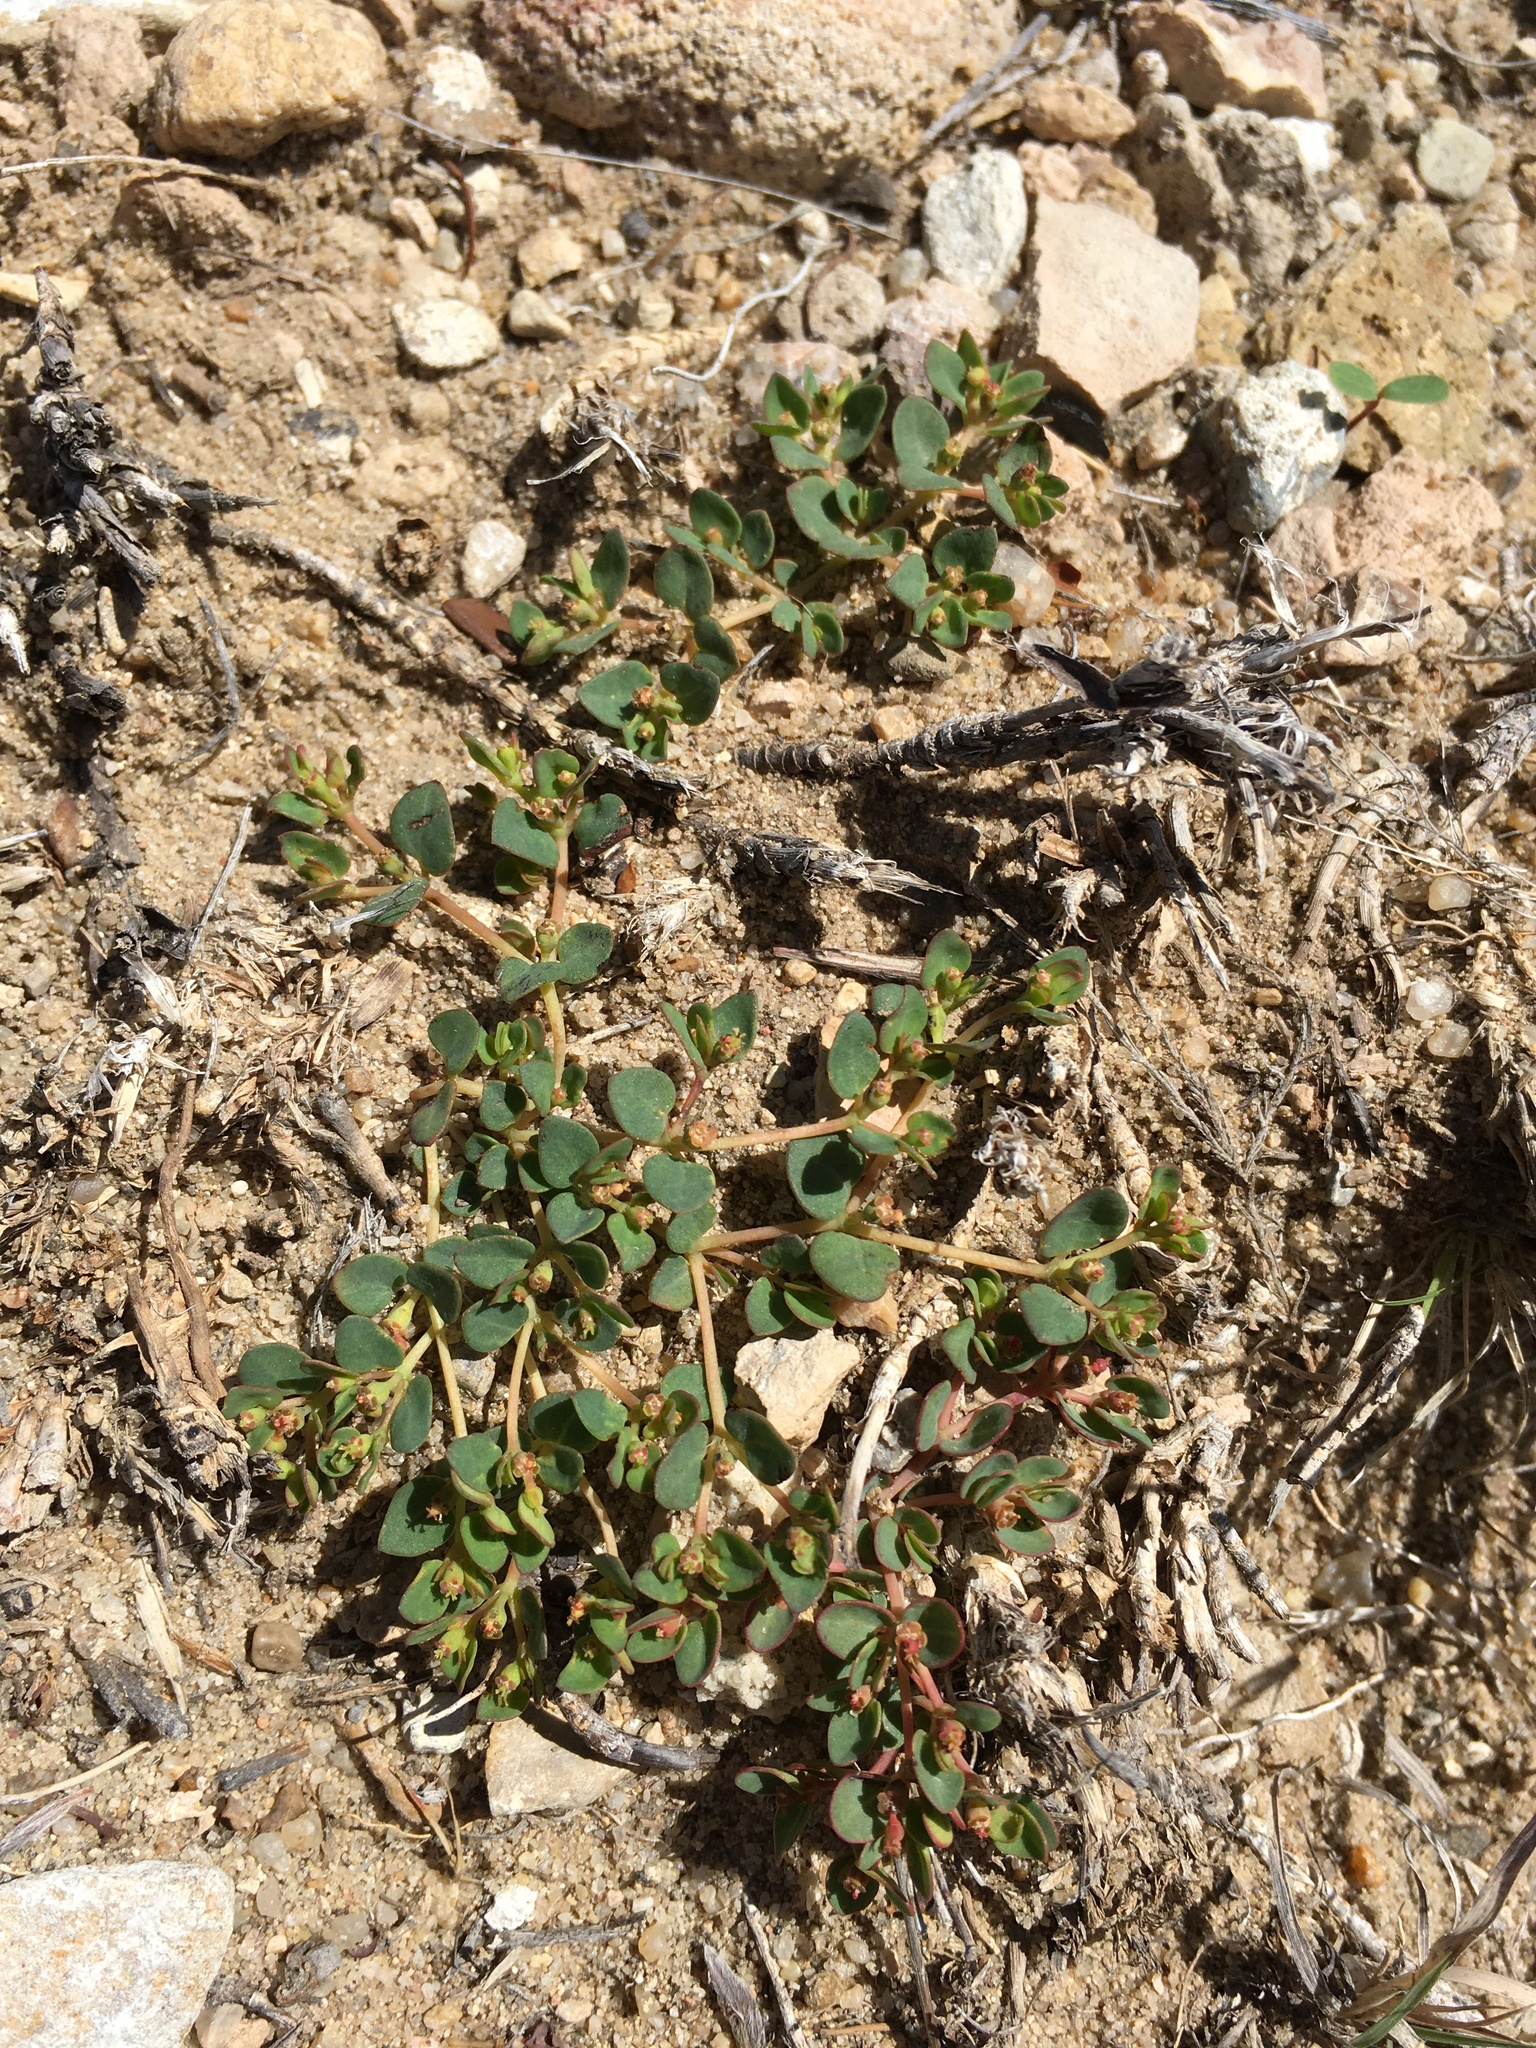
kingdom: Plantae
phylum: Tracheophyta
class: Magnoliopsida
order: Malpighiales
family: Euphorbiaceae
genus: Euphorbia
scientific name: Euphorbia fendleri
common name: Fendler's euphorbia
